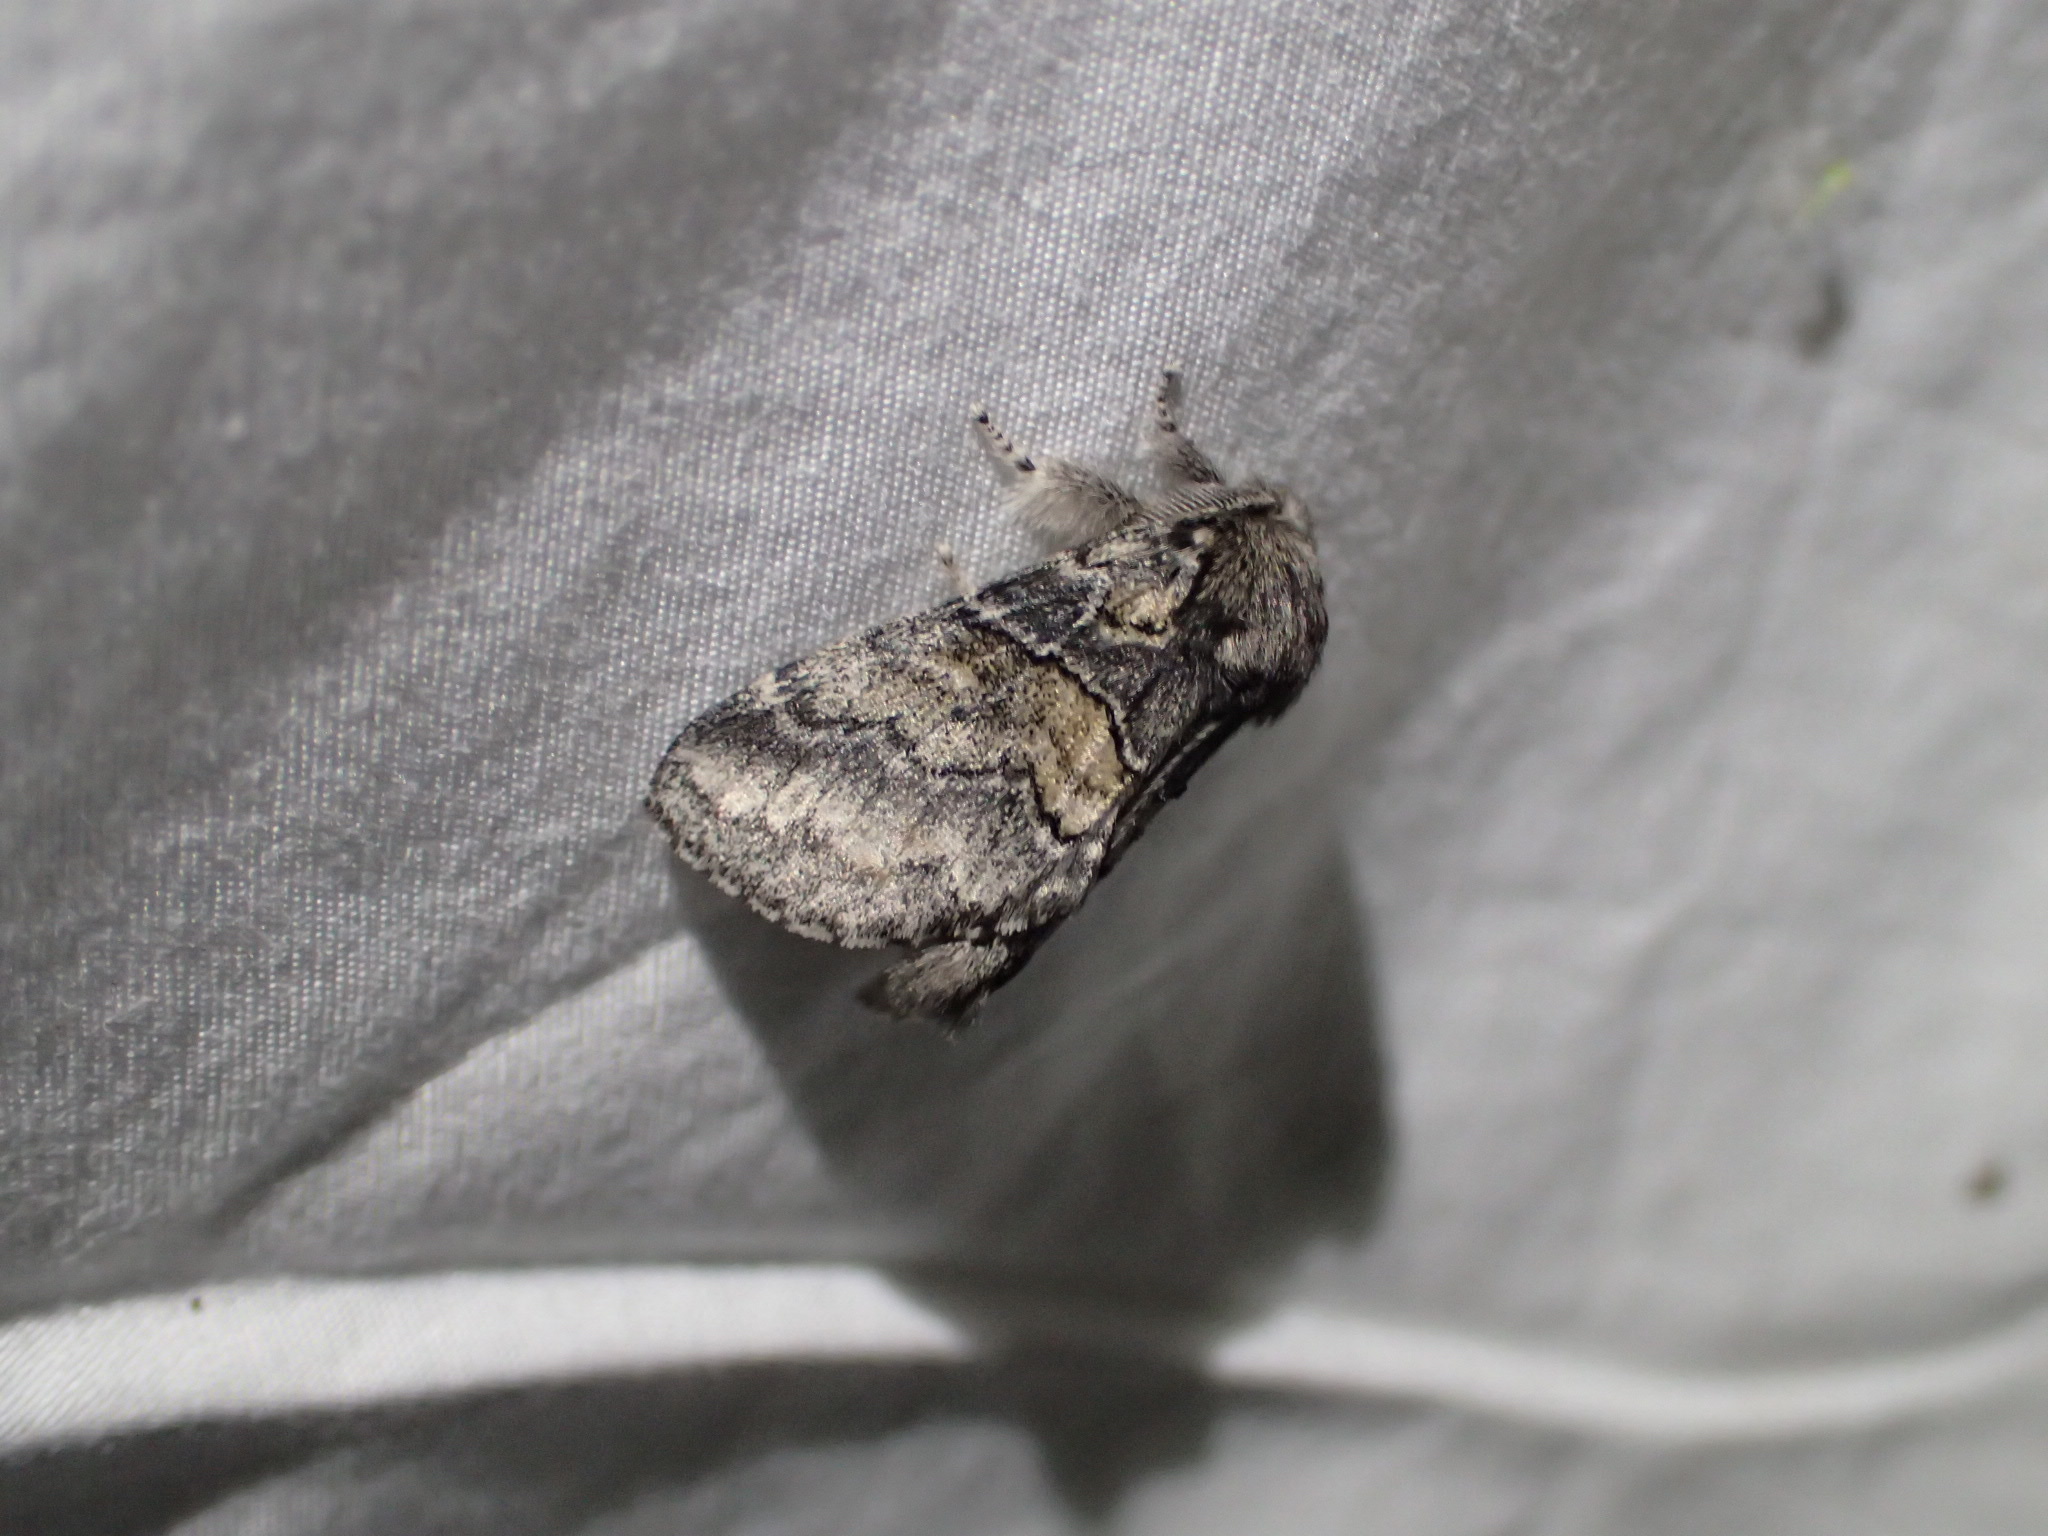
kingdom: Animalia
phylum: Arthropoda
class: Insecta
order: Lepidoptera
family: Notodontidae
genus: Gluphisia
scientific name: Gluphisia septentrionis
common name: Common gluphisia
